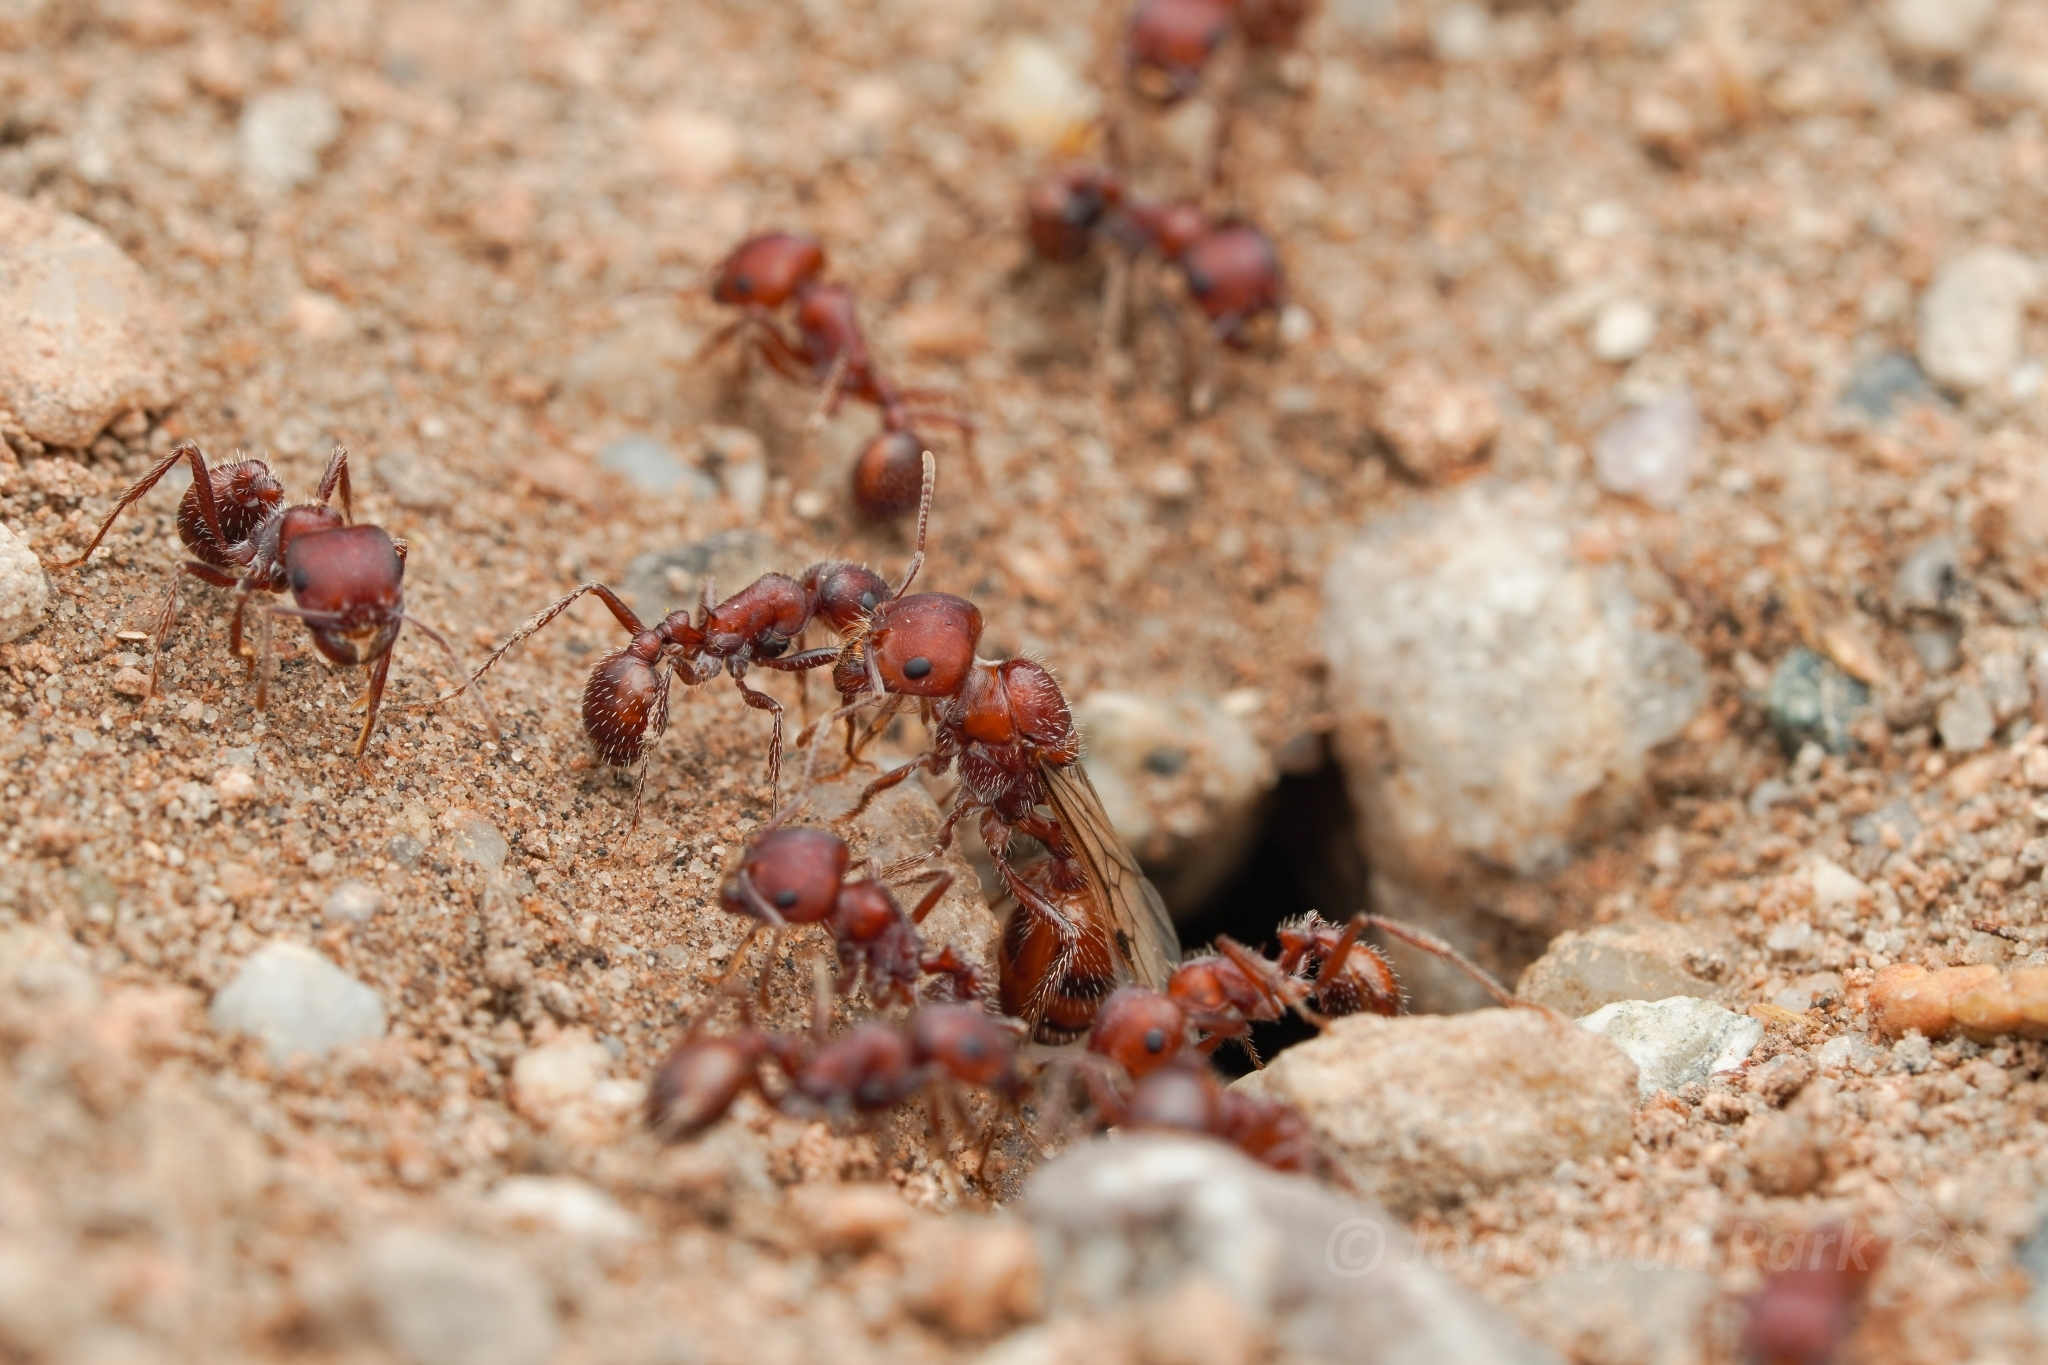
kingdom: Animalia
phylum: Arthropoda
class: Insecta
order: Hymenoptera
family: Formicidae
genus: Pogonomyrmex
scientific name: Pogonomyrmex desertorum
